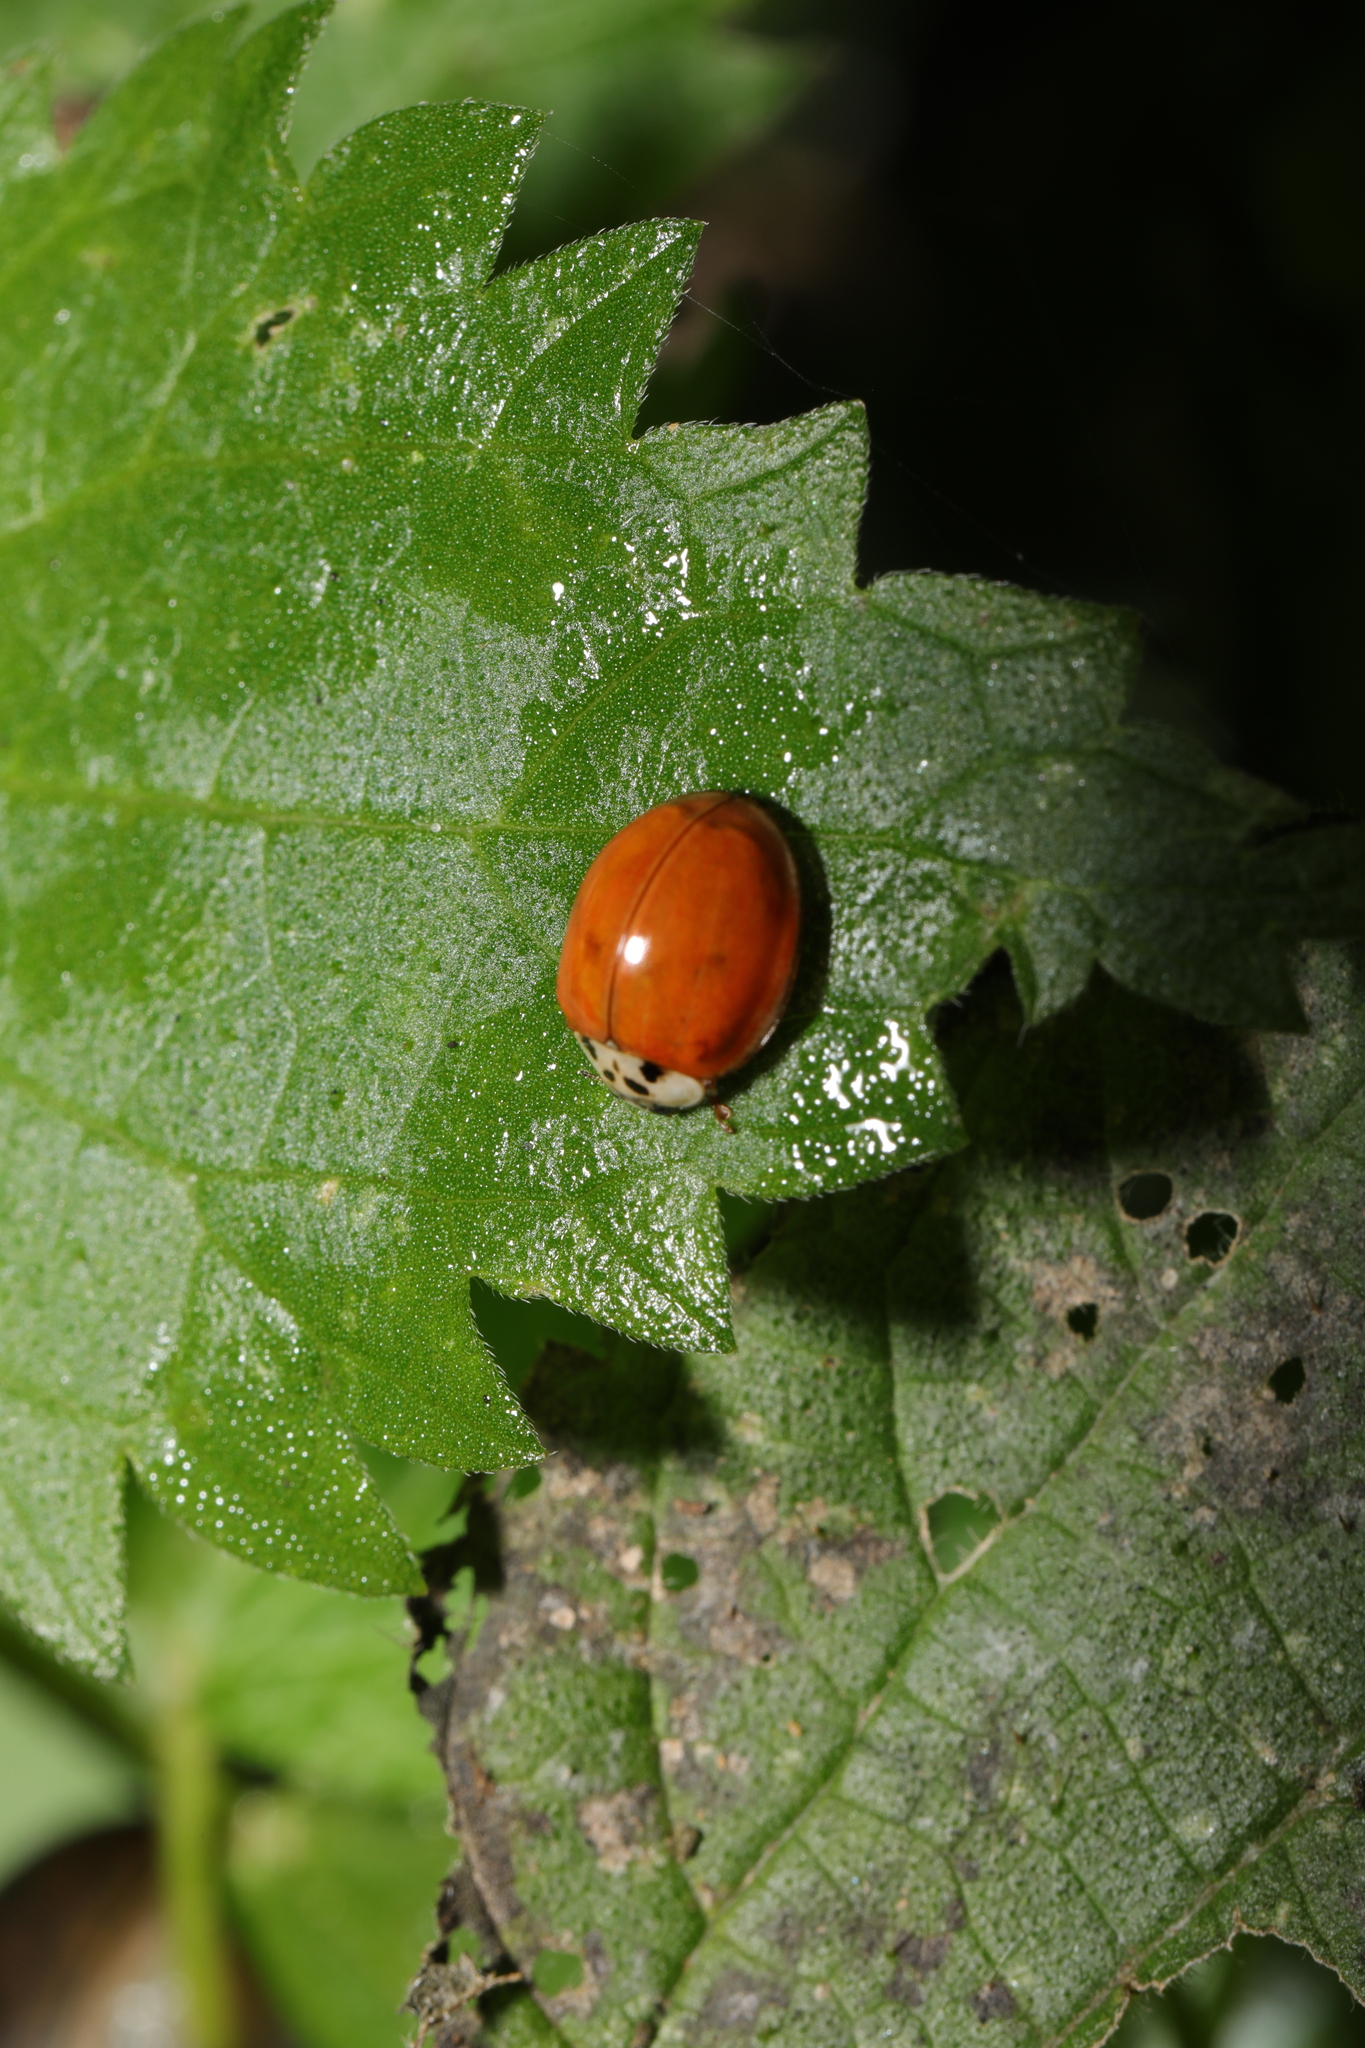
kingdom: Animalia
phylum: Arthropoda
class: Insecta
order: Coleoptera
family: Coccinellidae
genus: Harmonia
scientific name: Harmonia axyridis
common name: Harlequin ladybird
